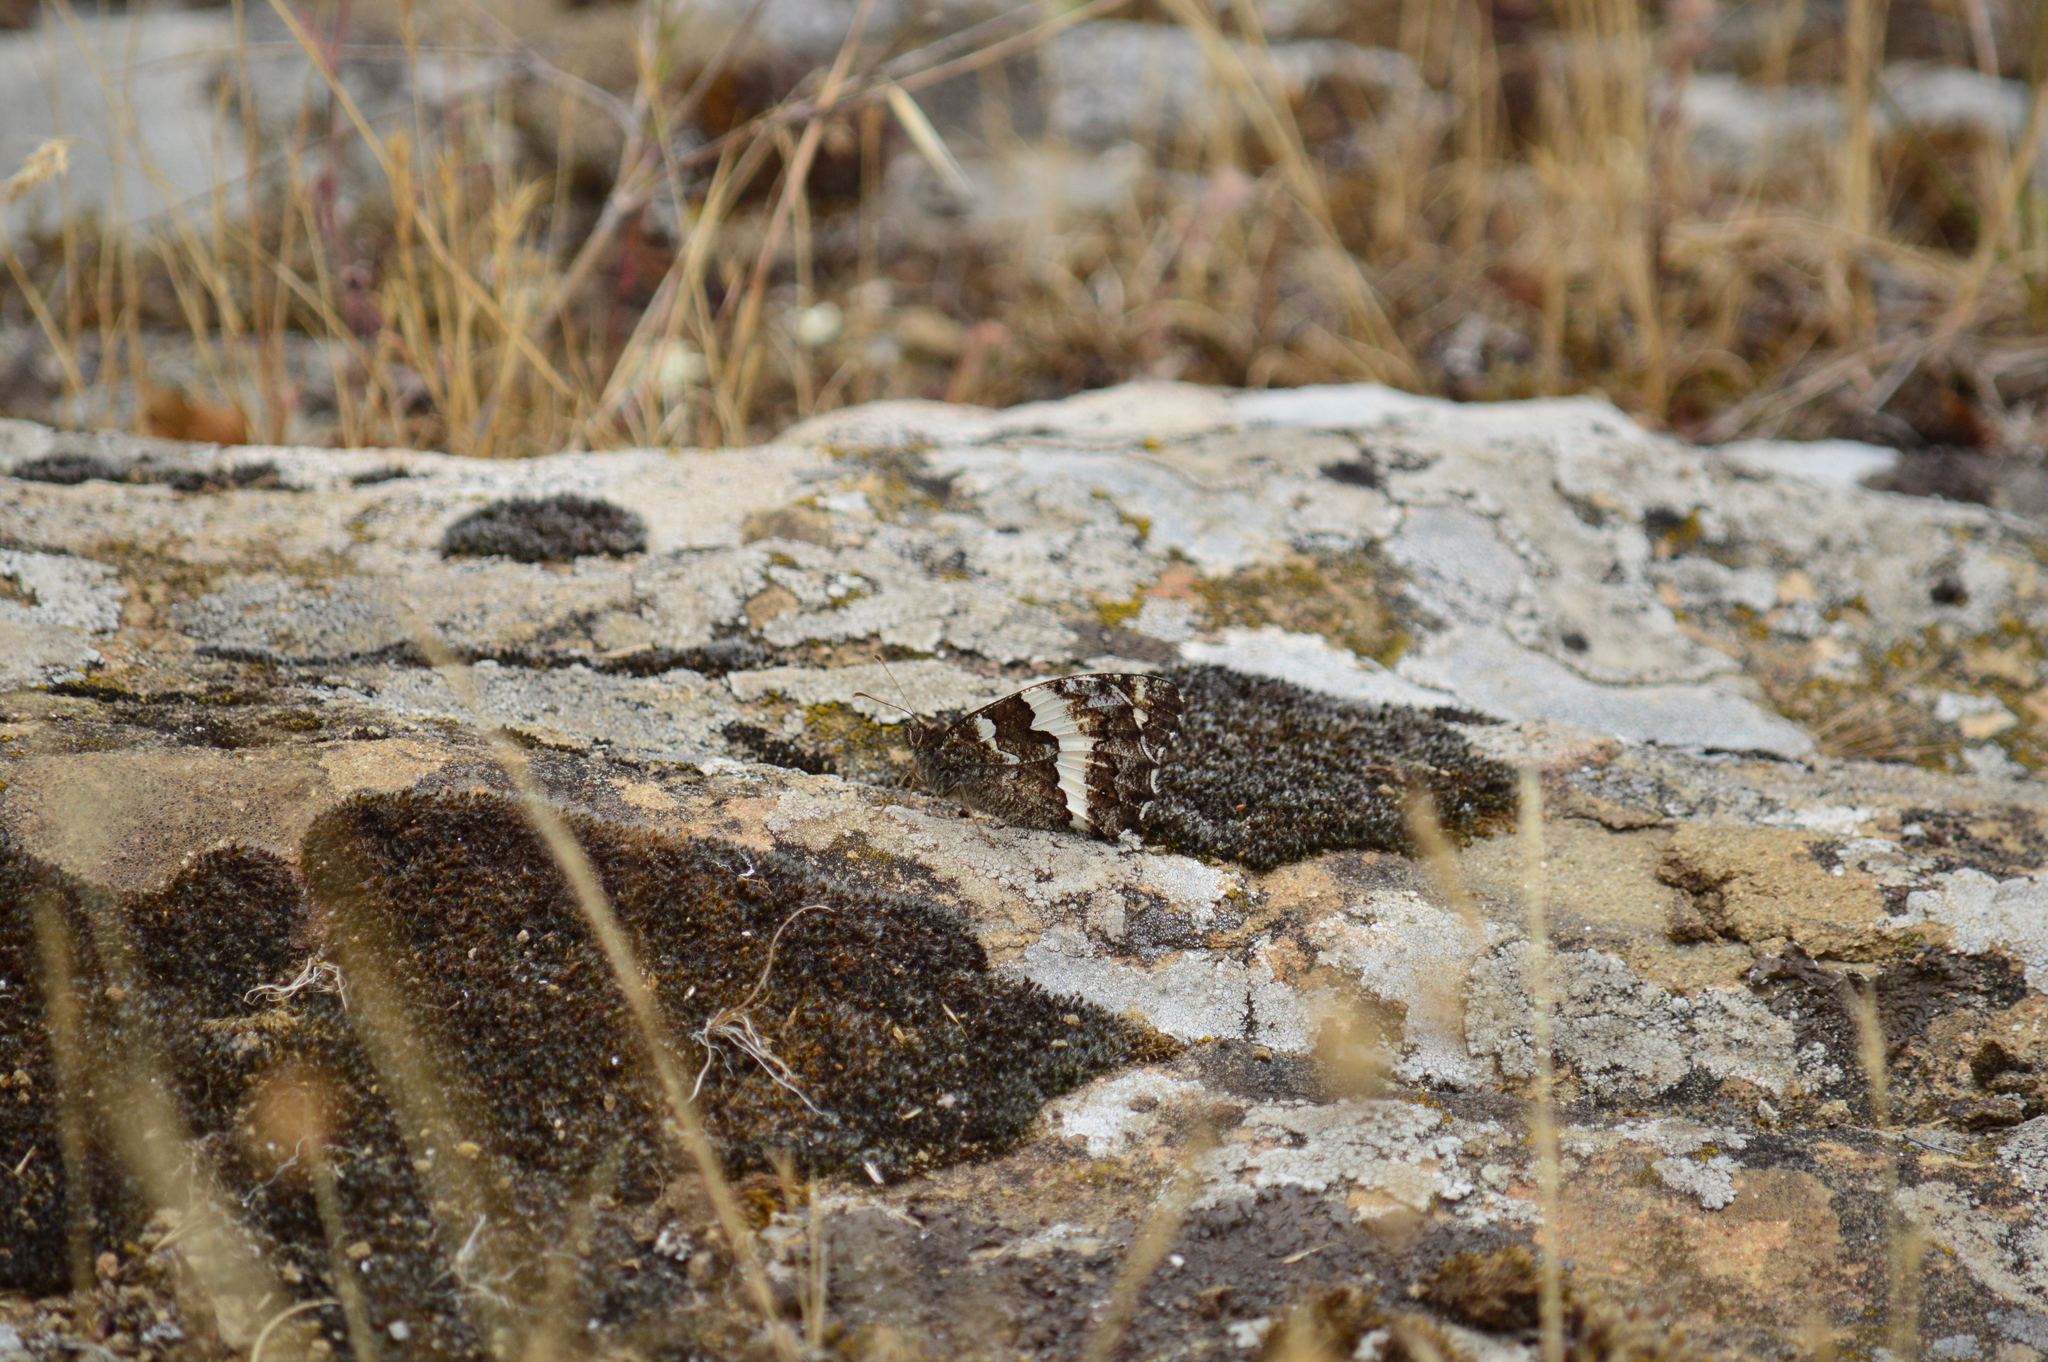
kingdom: Animalia
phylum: Arthropoda
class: Insecta
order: Lepidoptera
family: Lycaenidae
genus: Loweia
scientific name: Loweia tityrus
